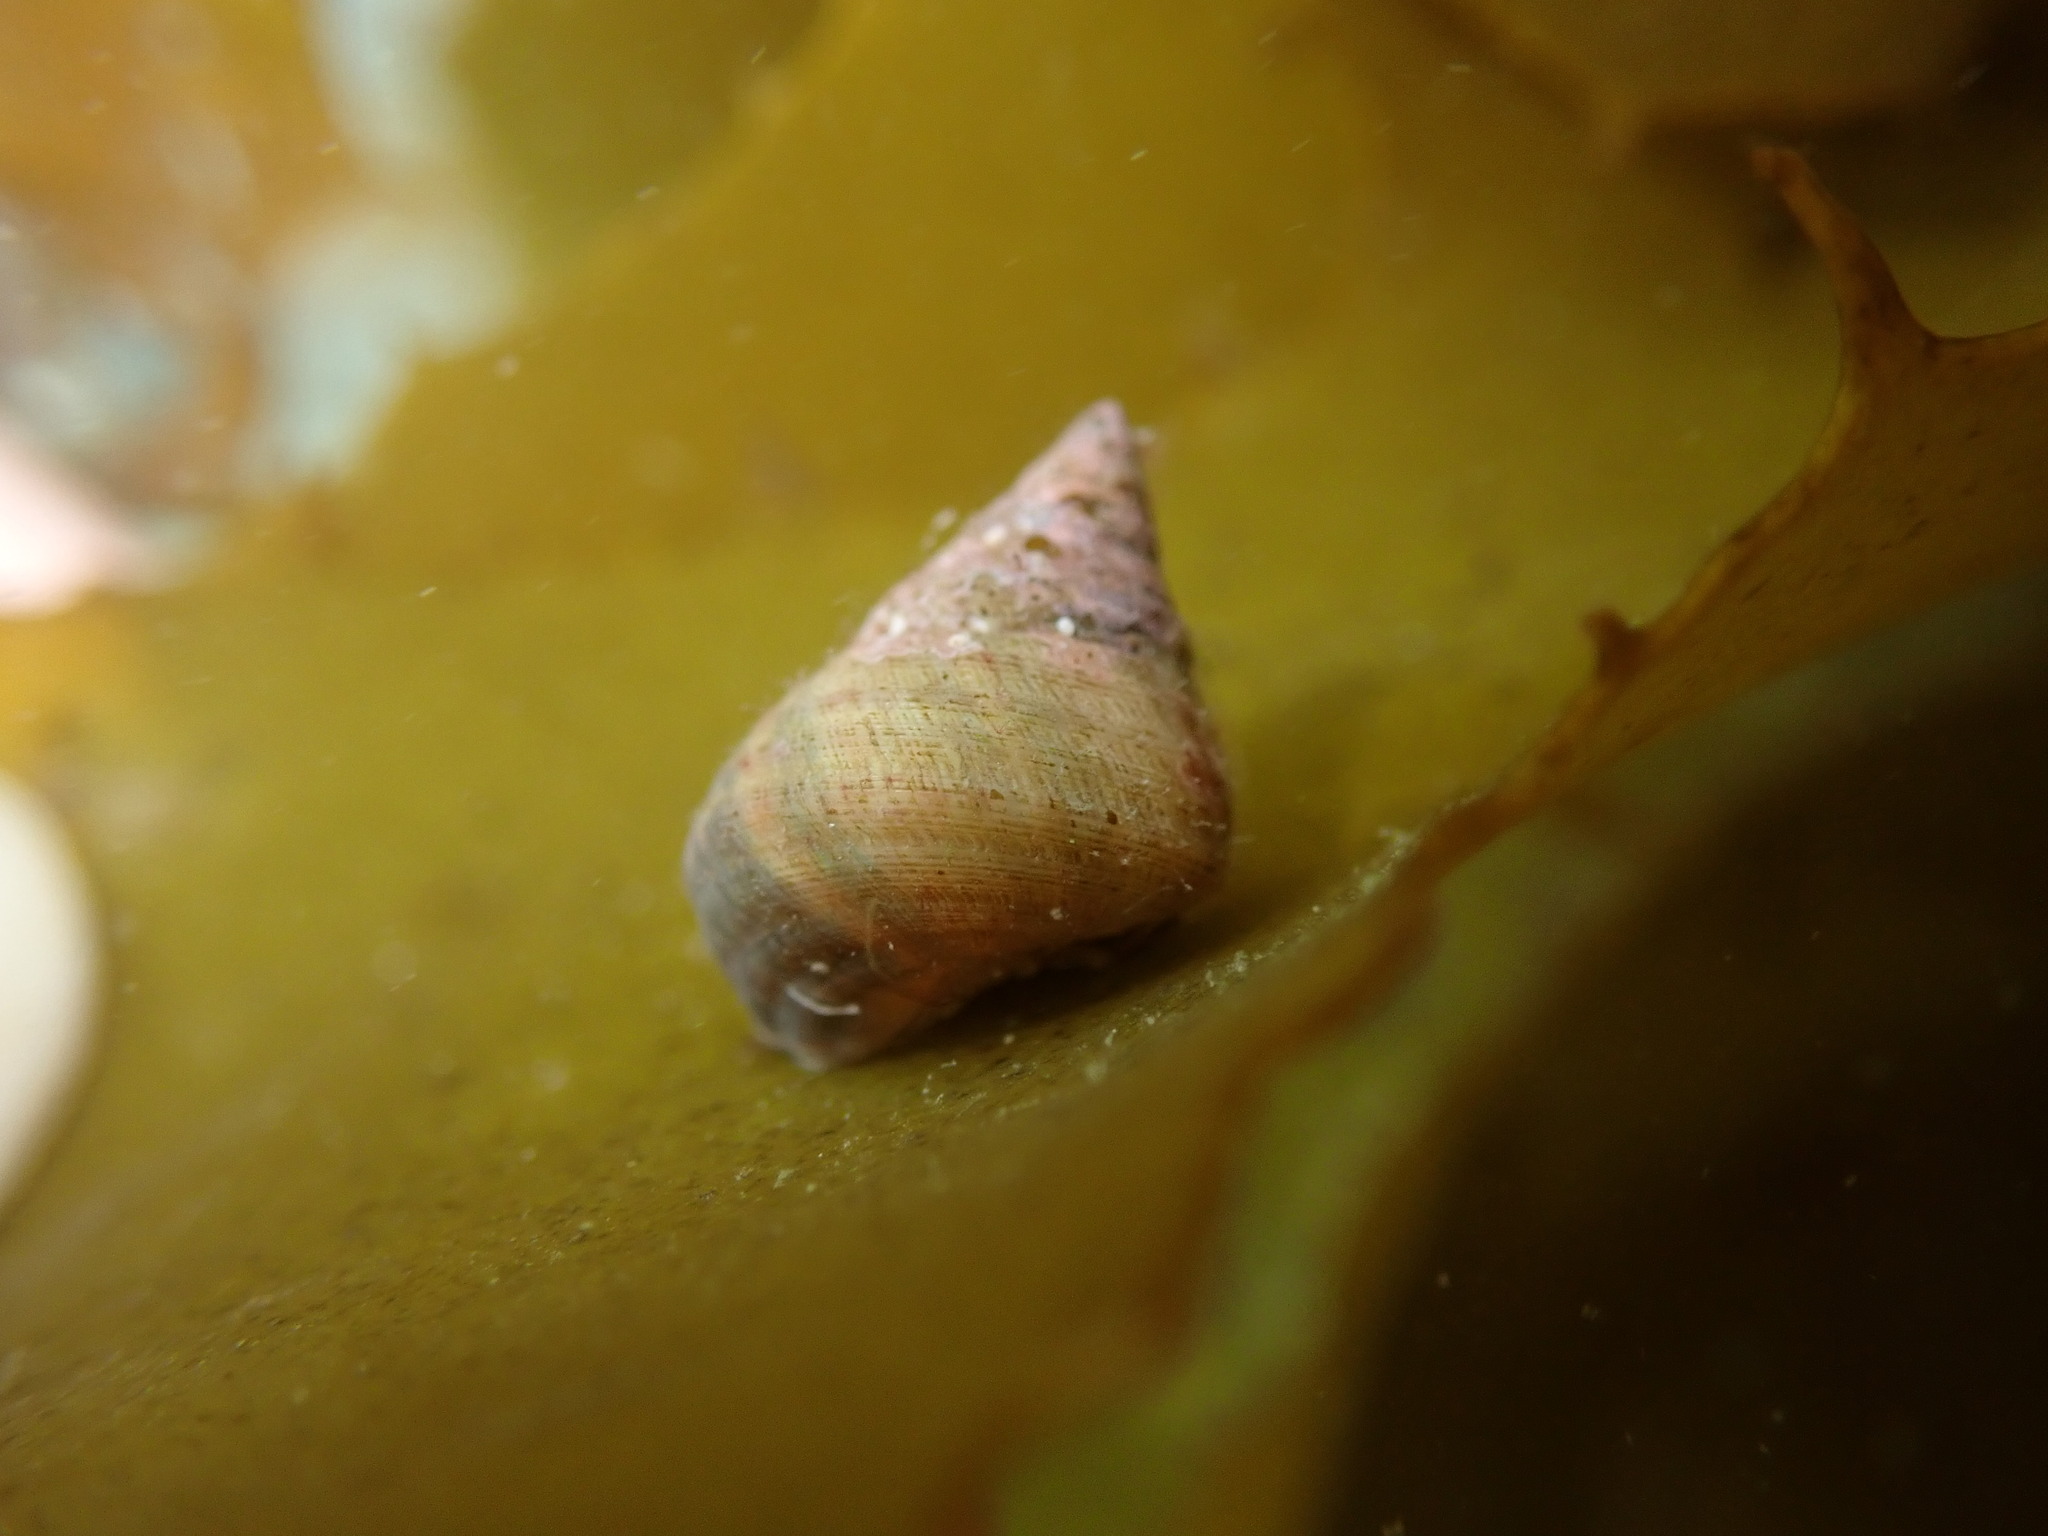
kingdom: Animalia
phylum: Mollusca
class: Gastropoda
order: Trochida
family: Trochidae
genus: Micrelenchus
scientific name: Micrelenchus purpureus
